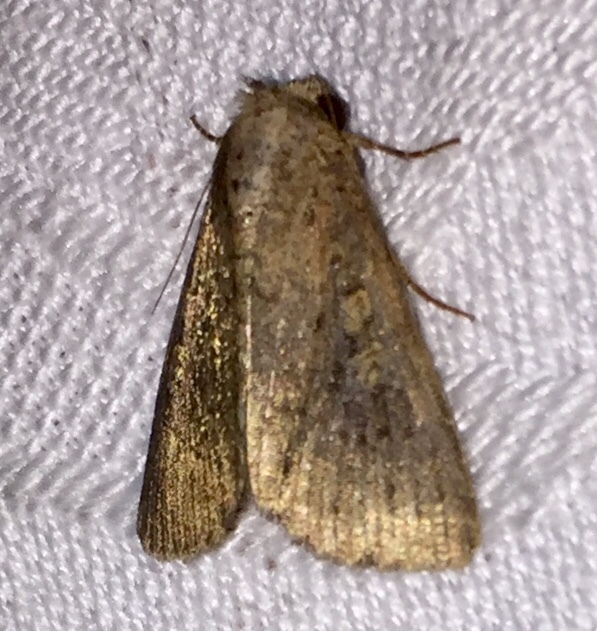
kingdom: Animalia
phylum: Arthropoda
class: Insecta
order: Lepidoptera
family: Noctuidae
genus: Condica
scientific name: Condica sutor
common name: Cobbler moth
